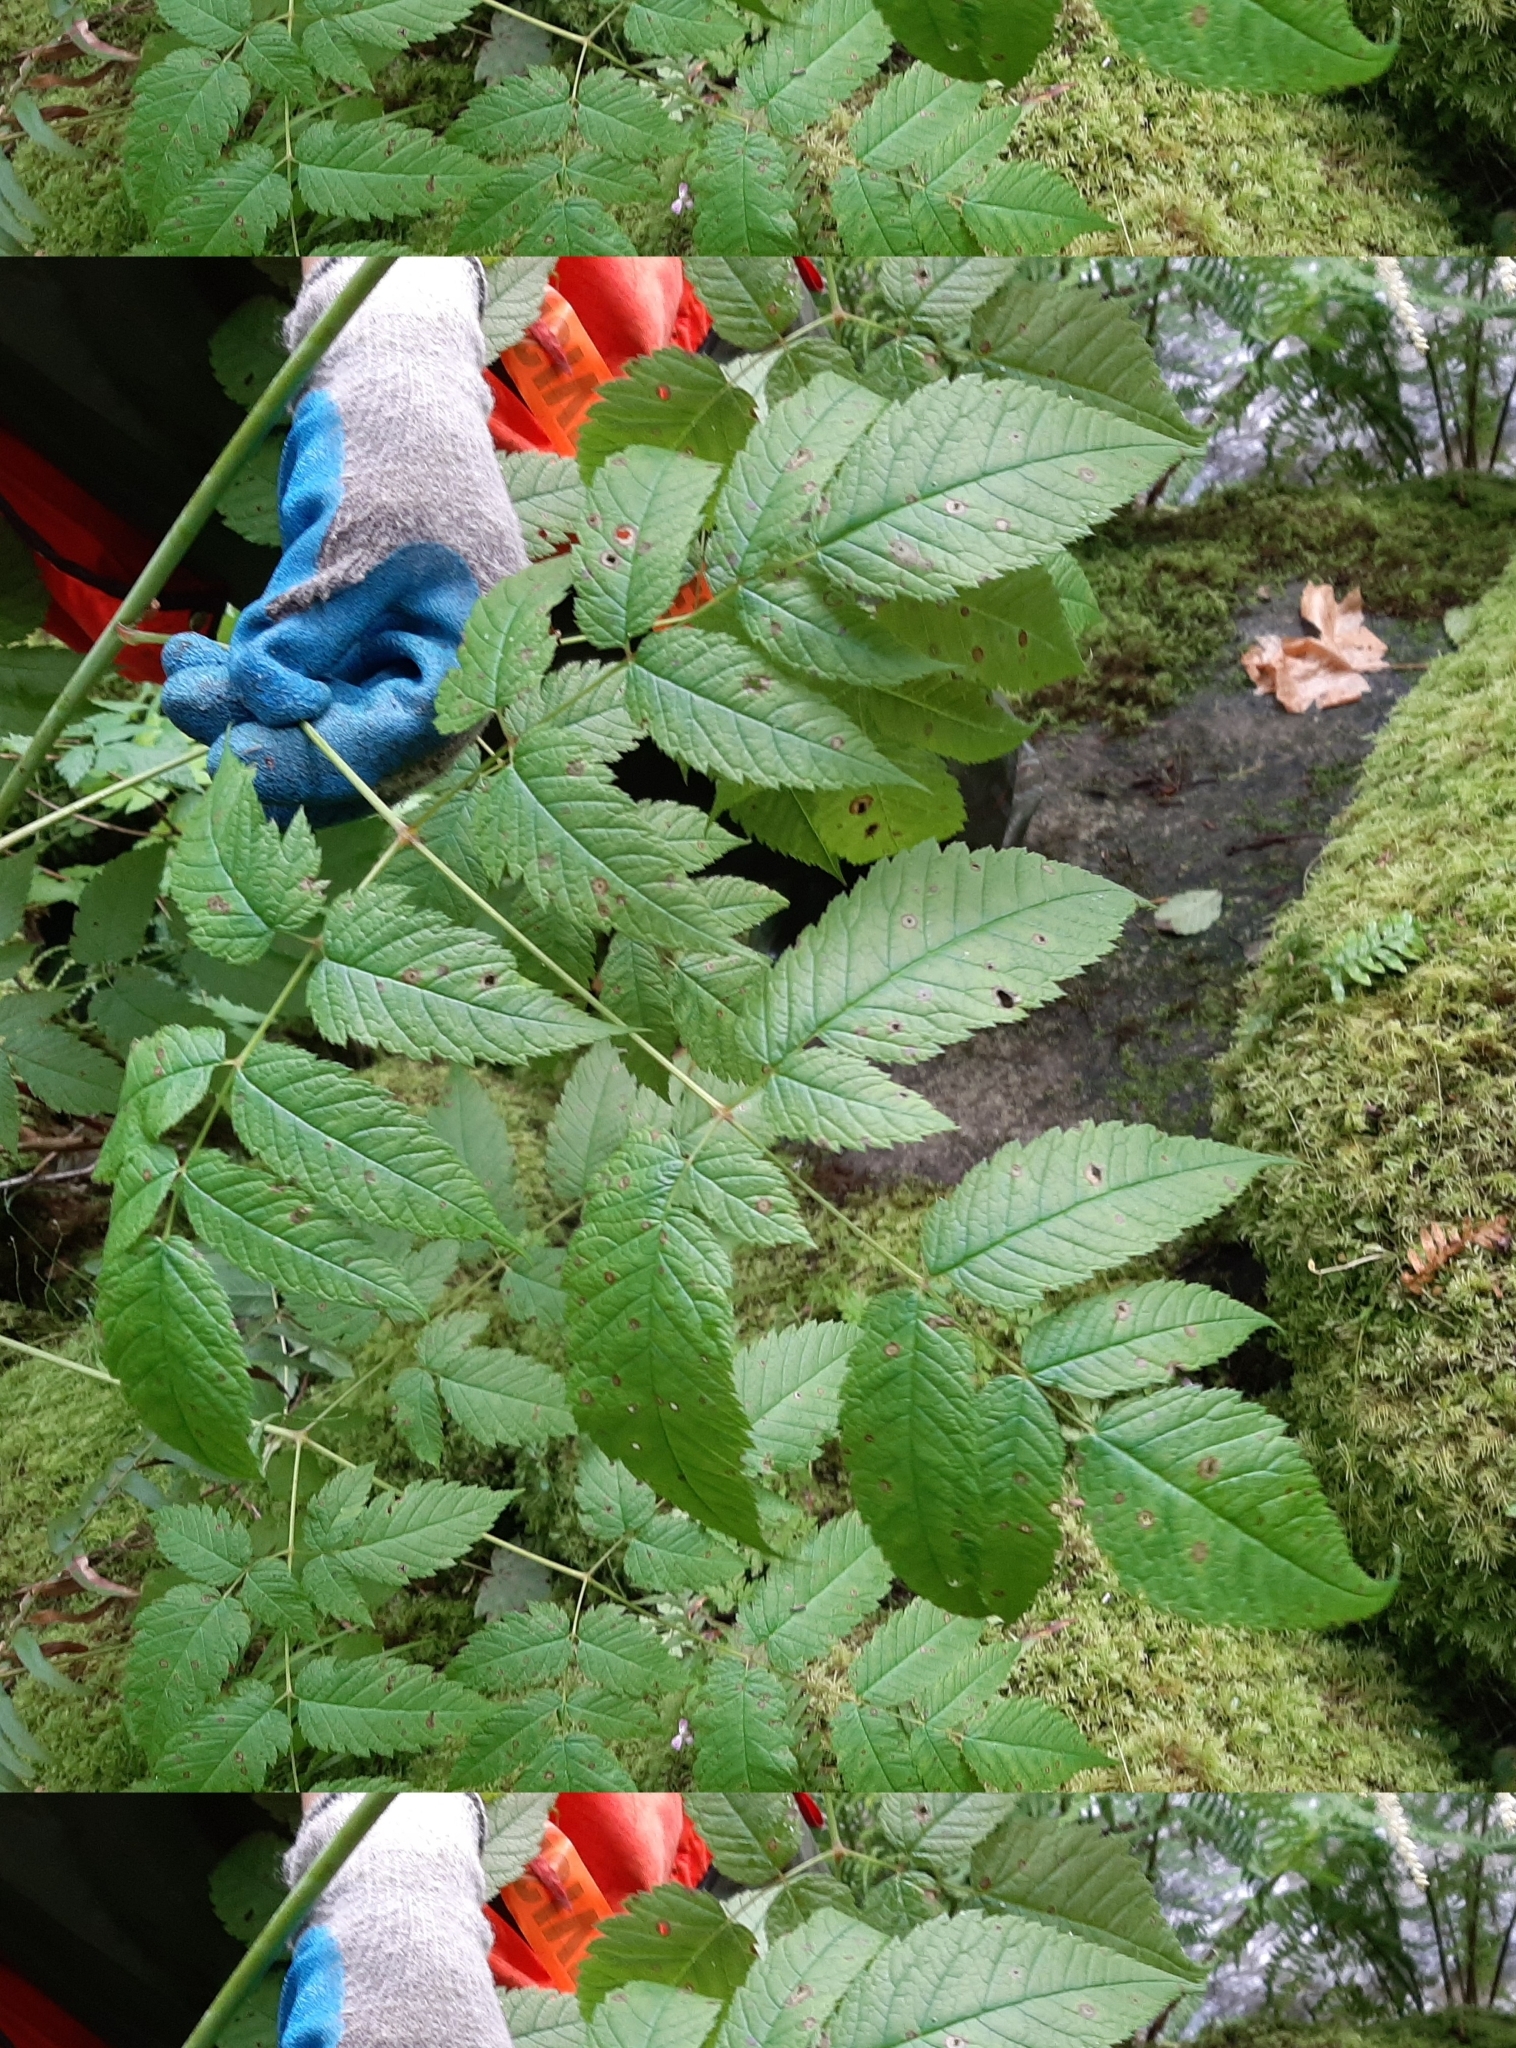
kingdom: Plantae
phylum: Tracheophyta
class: Magnoliopsida
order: Rosales
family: Rosaceae
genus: Aruncus
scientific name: Aruncus dioicus
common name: Buck's-beard
